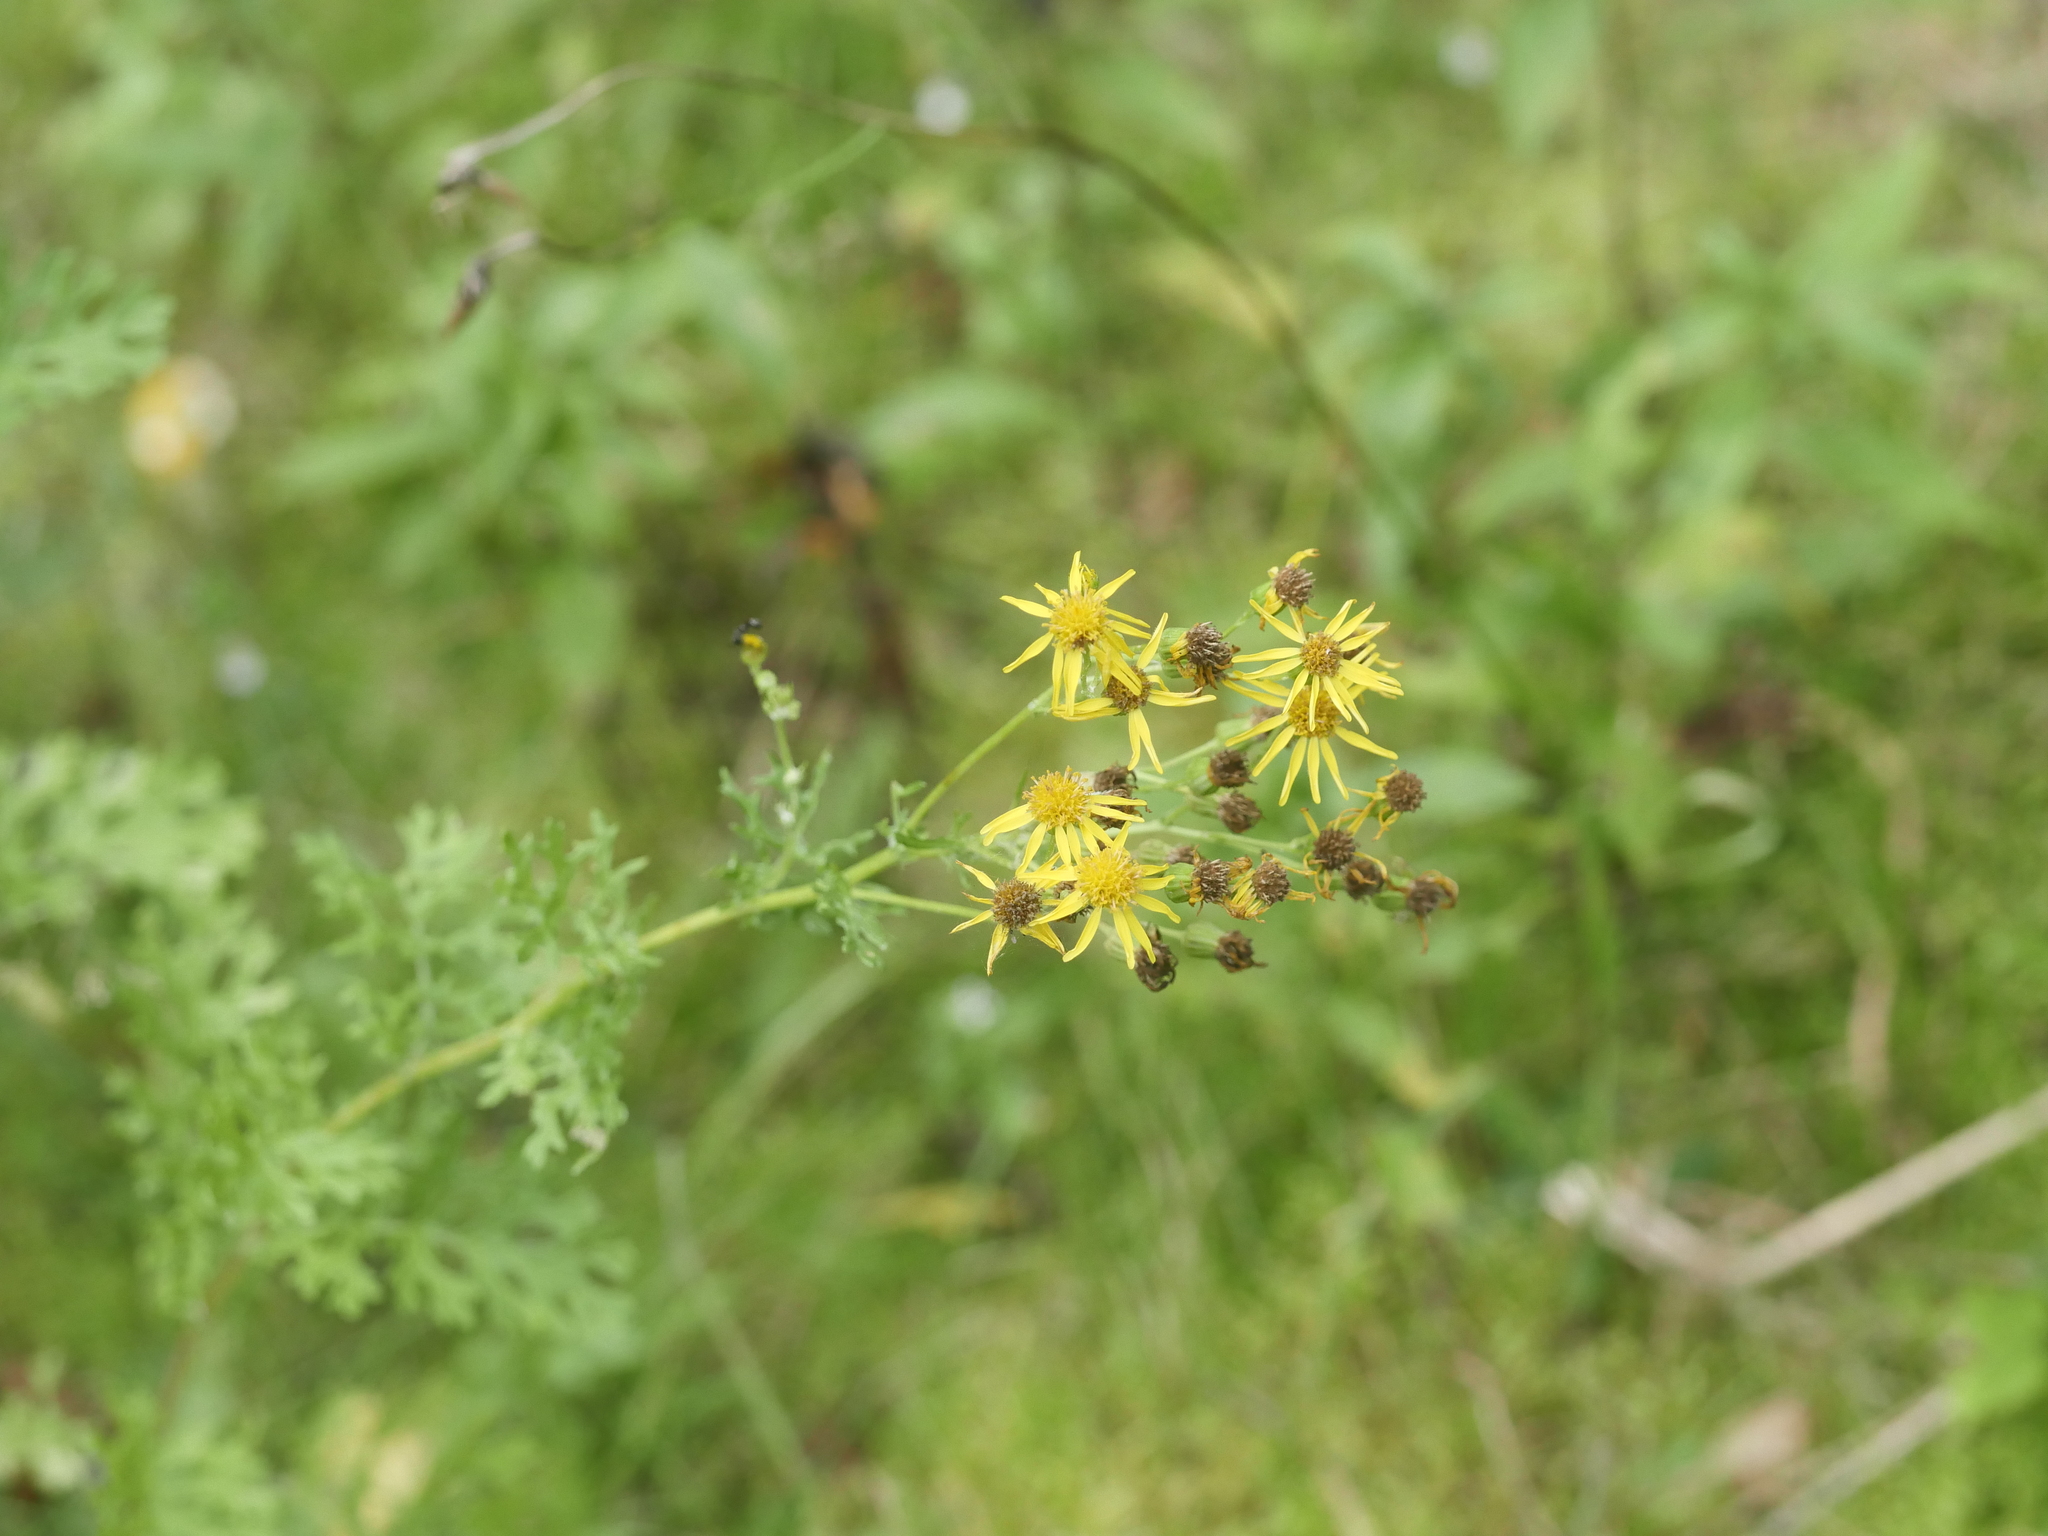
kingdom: Plantae
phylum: Tracheophyta
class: Magnoliopsida
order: Asterales
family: Asteraceae
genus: Jacobaea
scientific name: Jacobaea vulgaris
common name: Stinking willie
